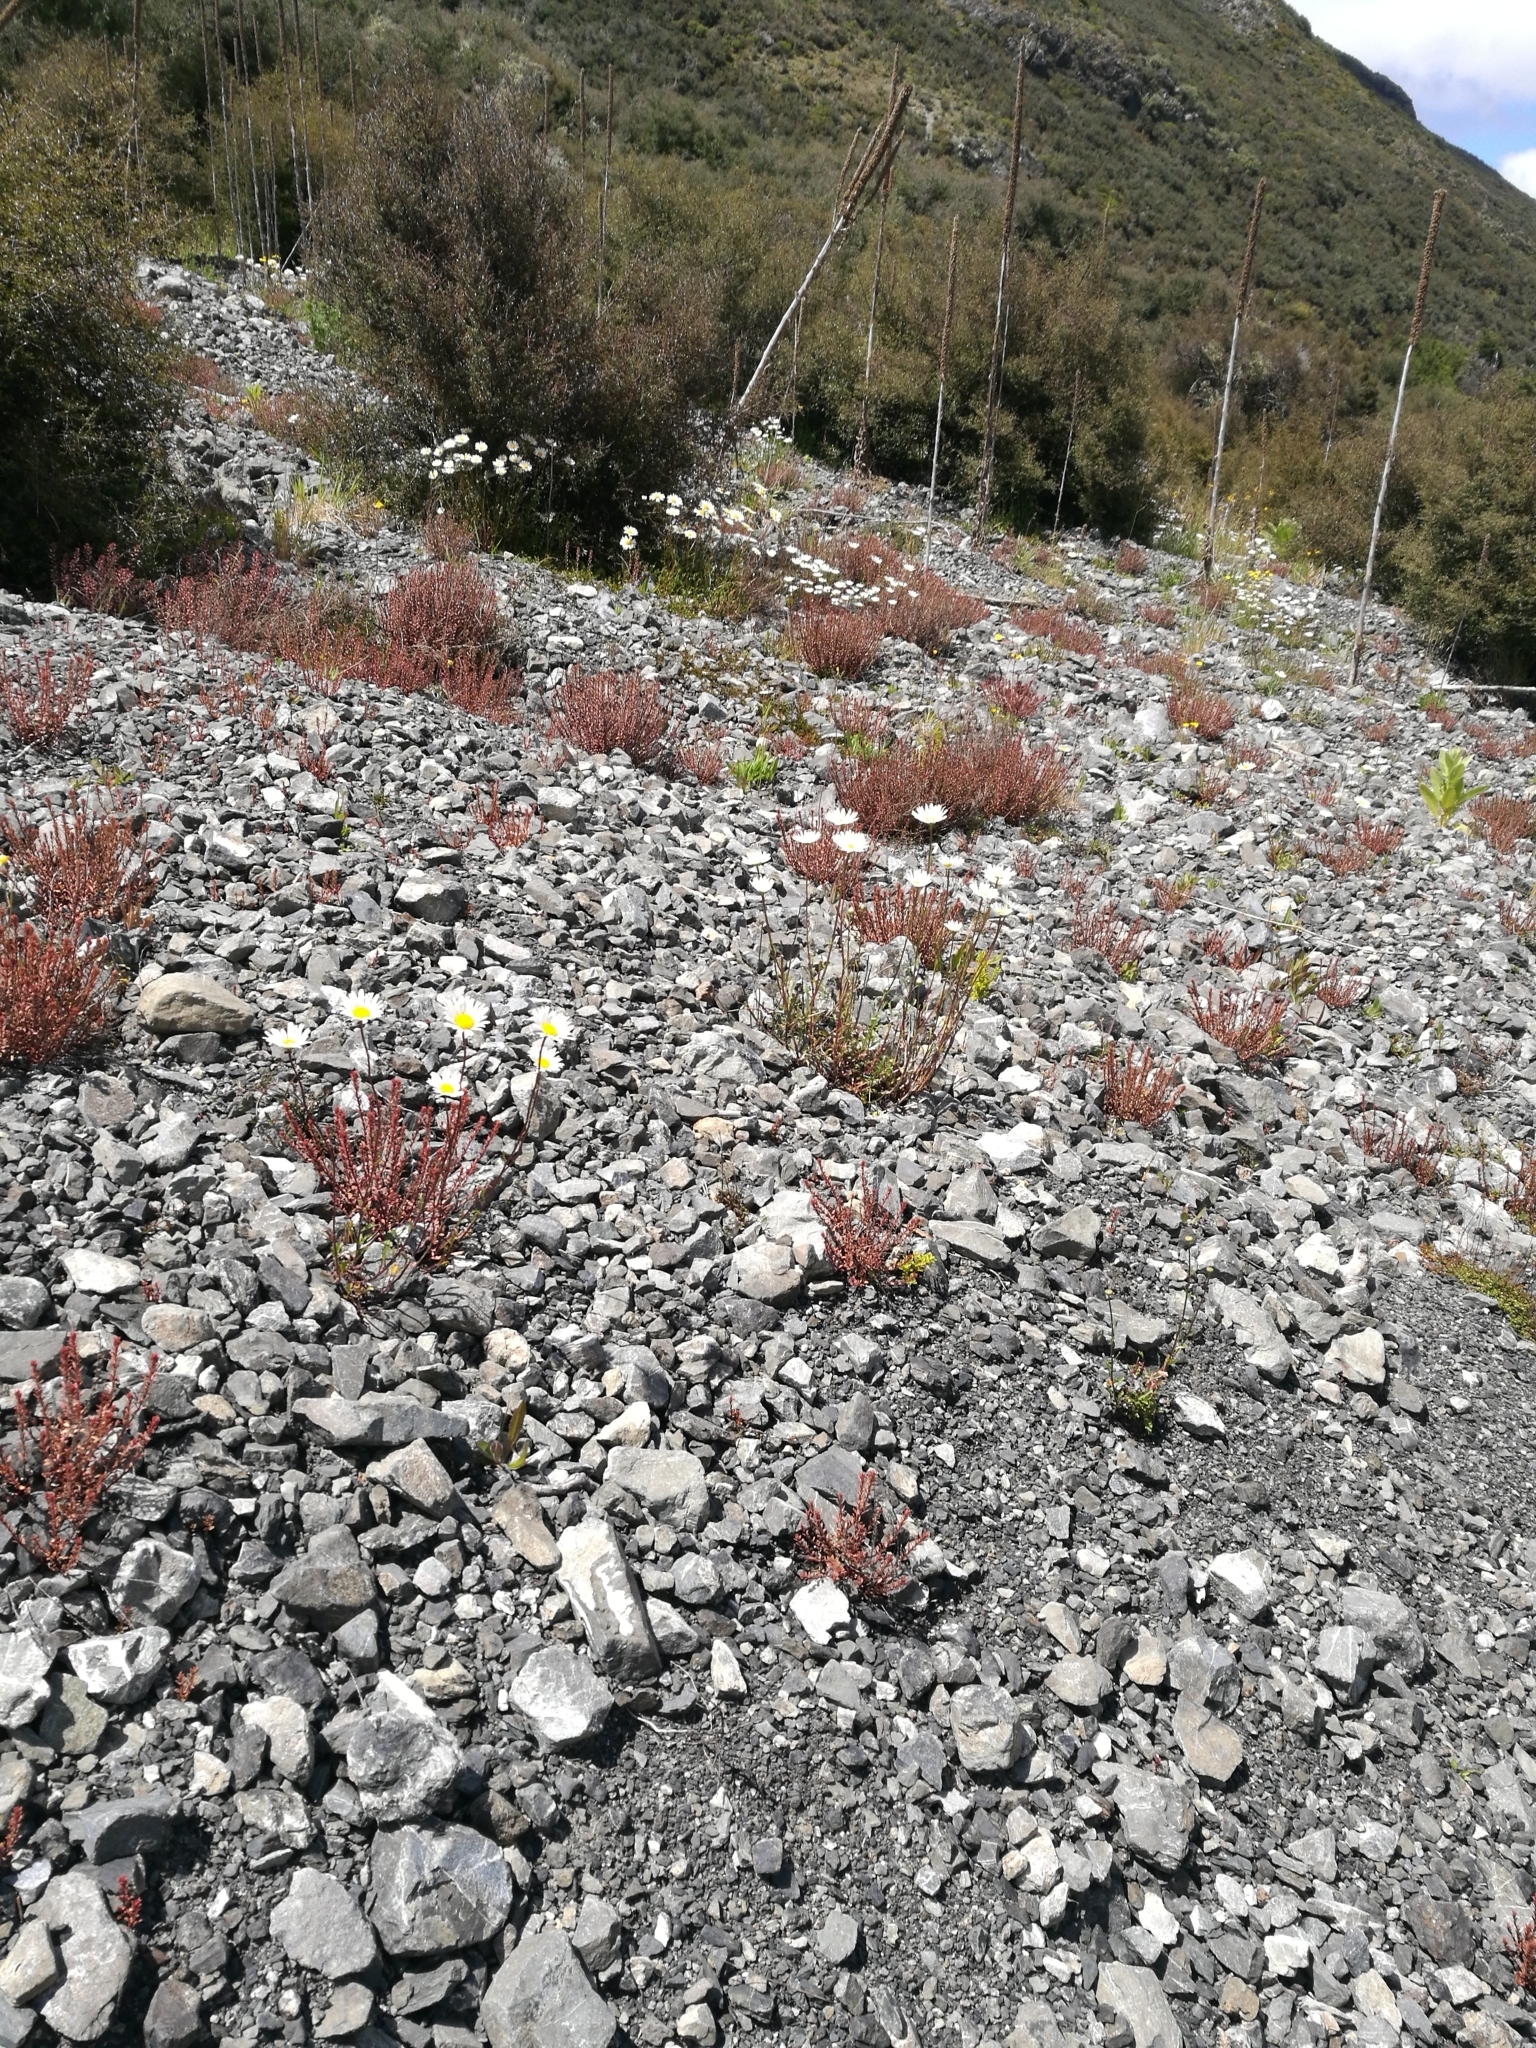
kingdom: Plantae
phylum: Tracheophyta
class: Magnoliopsida
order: Myrtales
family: Onagraceae
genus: Epilobium
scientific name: Epilobium melanocaulon
